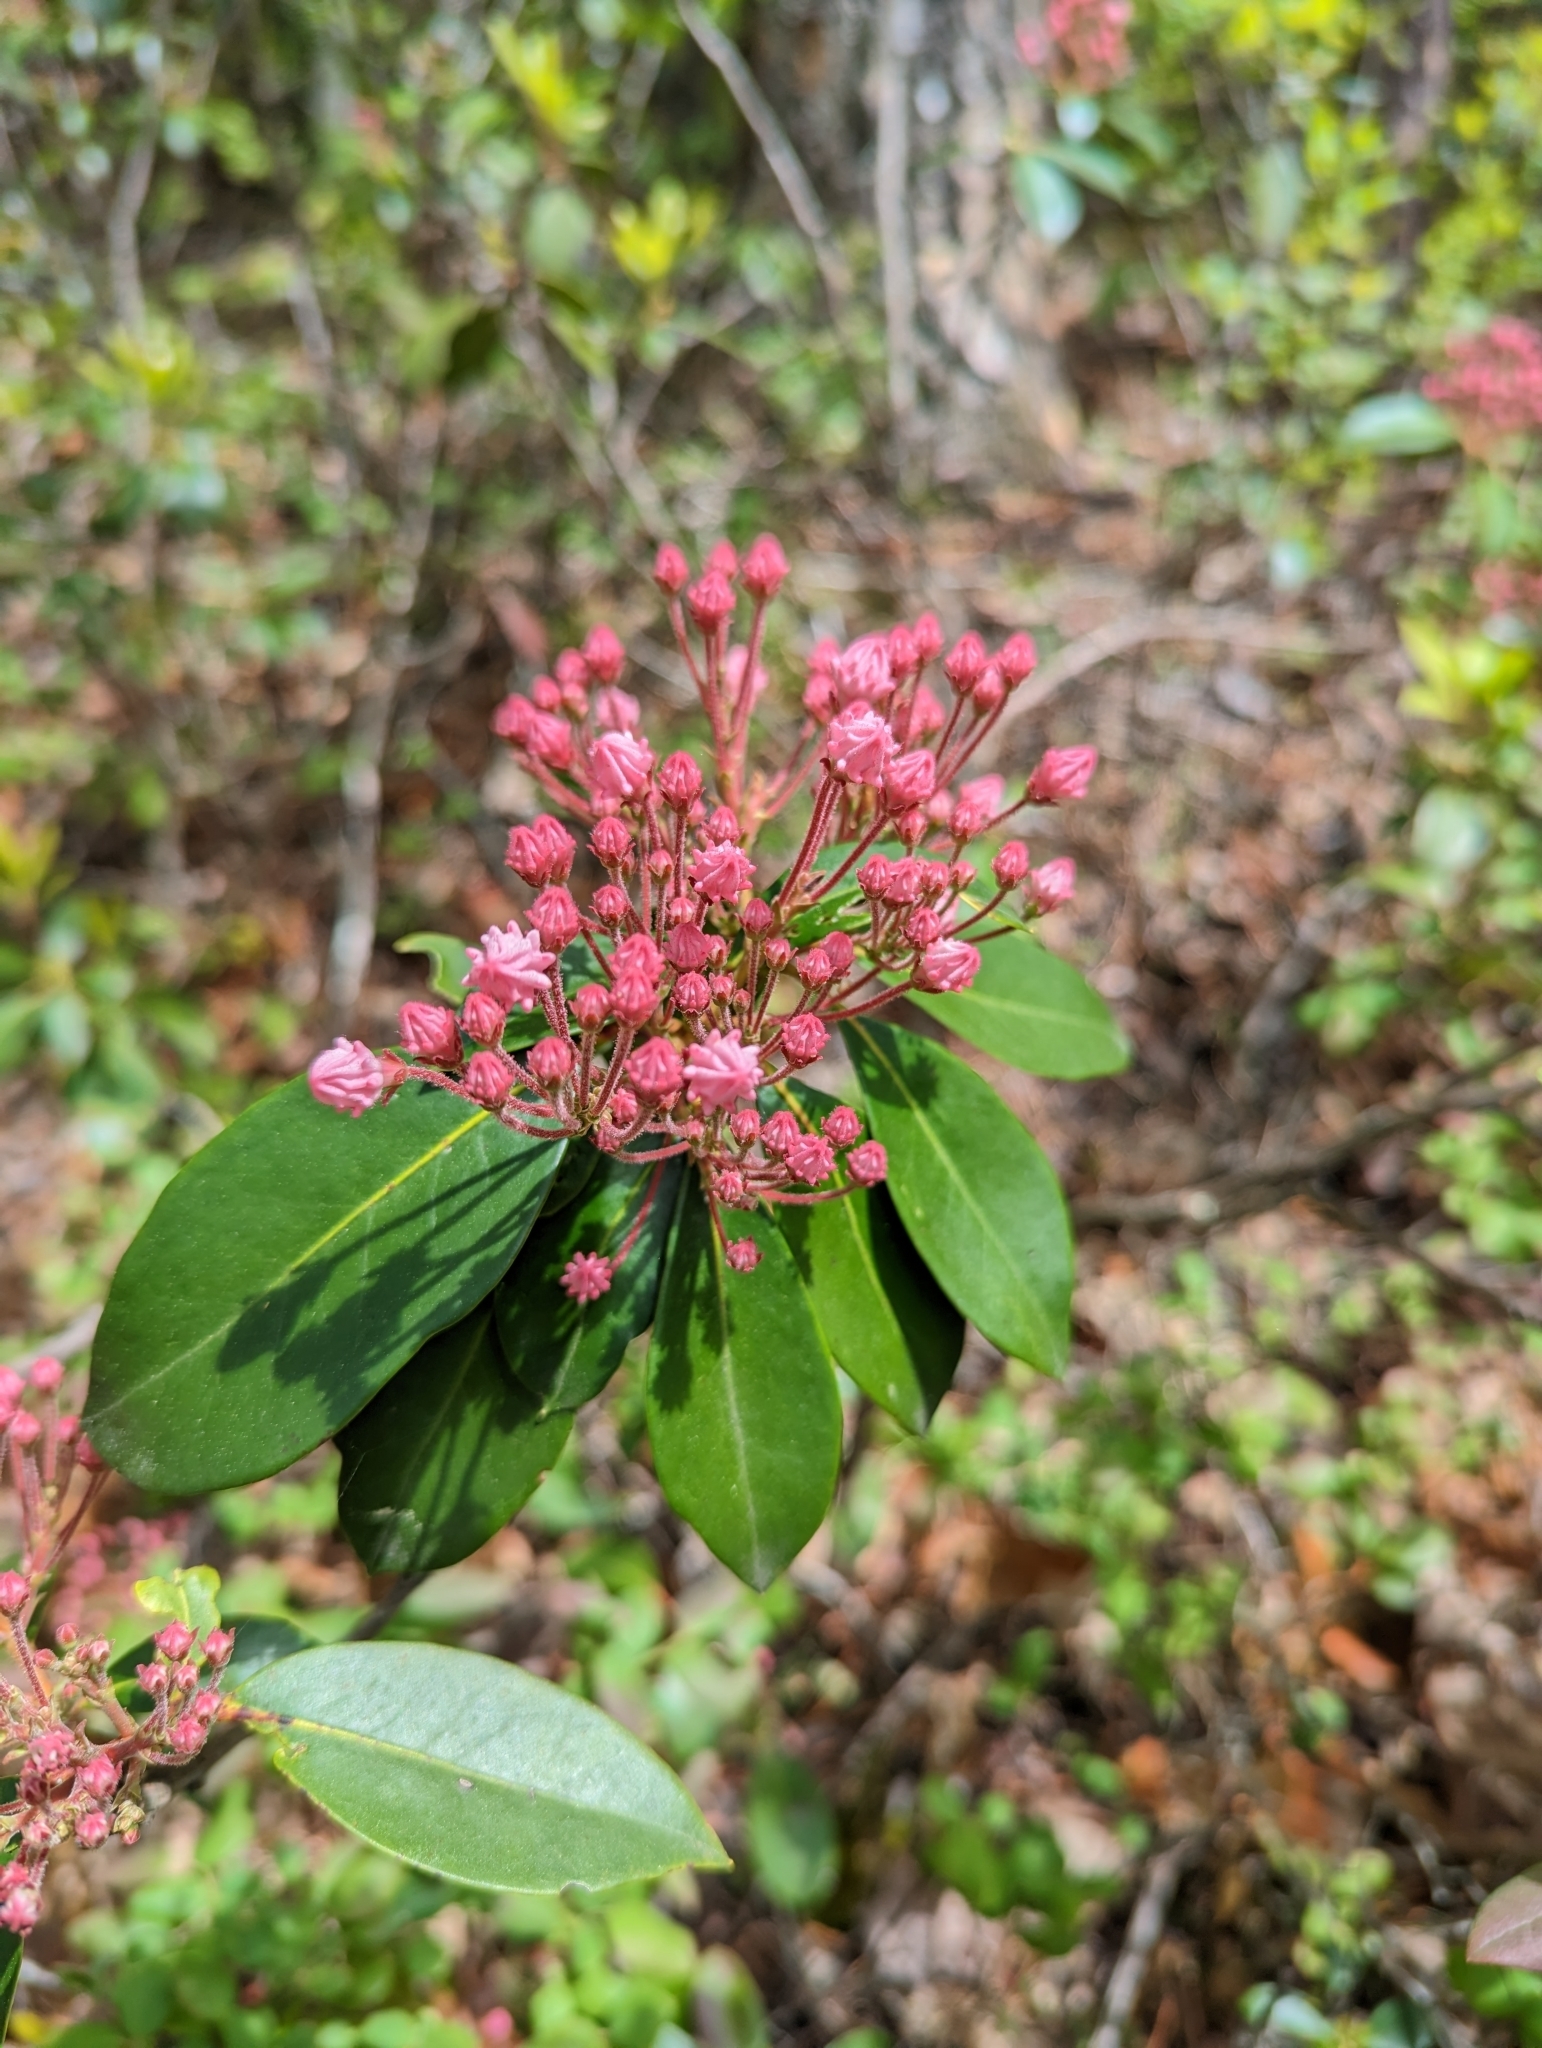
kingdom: Plantae
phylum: Tracheophyta
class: Magnoliopsida
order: Ericales
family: Ericaceae
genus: Kalmia
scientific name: Kalmia latifolia
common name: Mountain-laurel
